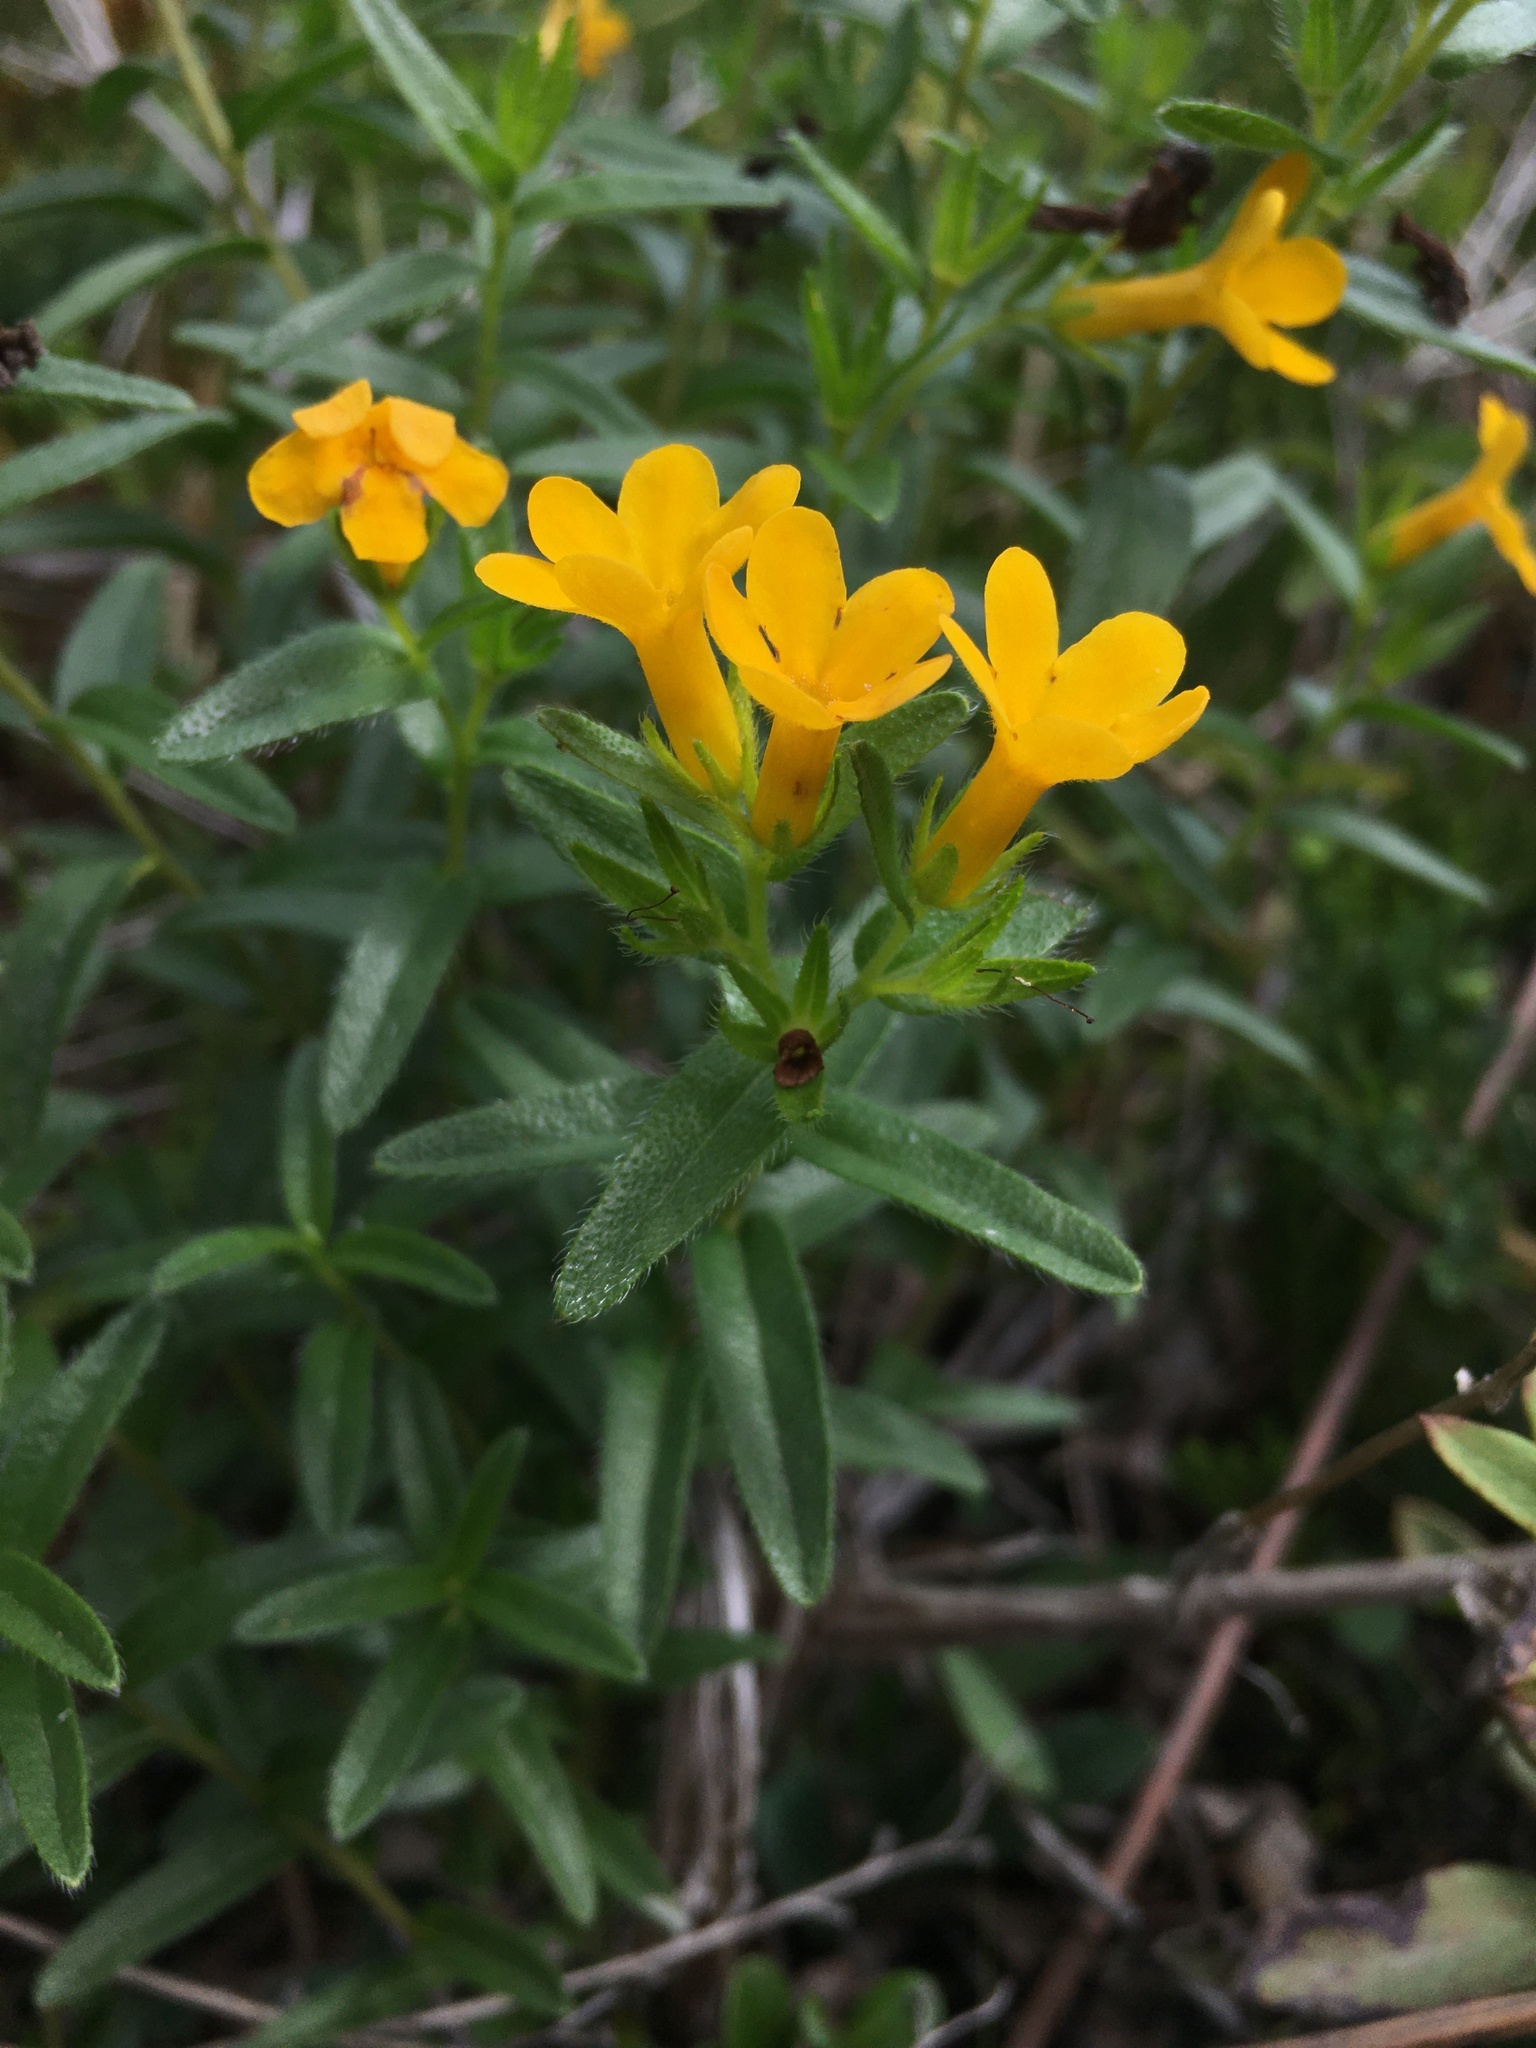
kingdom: Plantae
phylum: Tracheophyta
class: Magnoliopsida
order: Boraginales
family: Boraginaceae
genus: Lithospermum
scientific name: Lithospermum caroliniense
